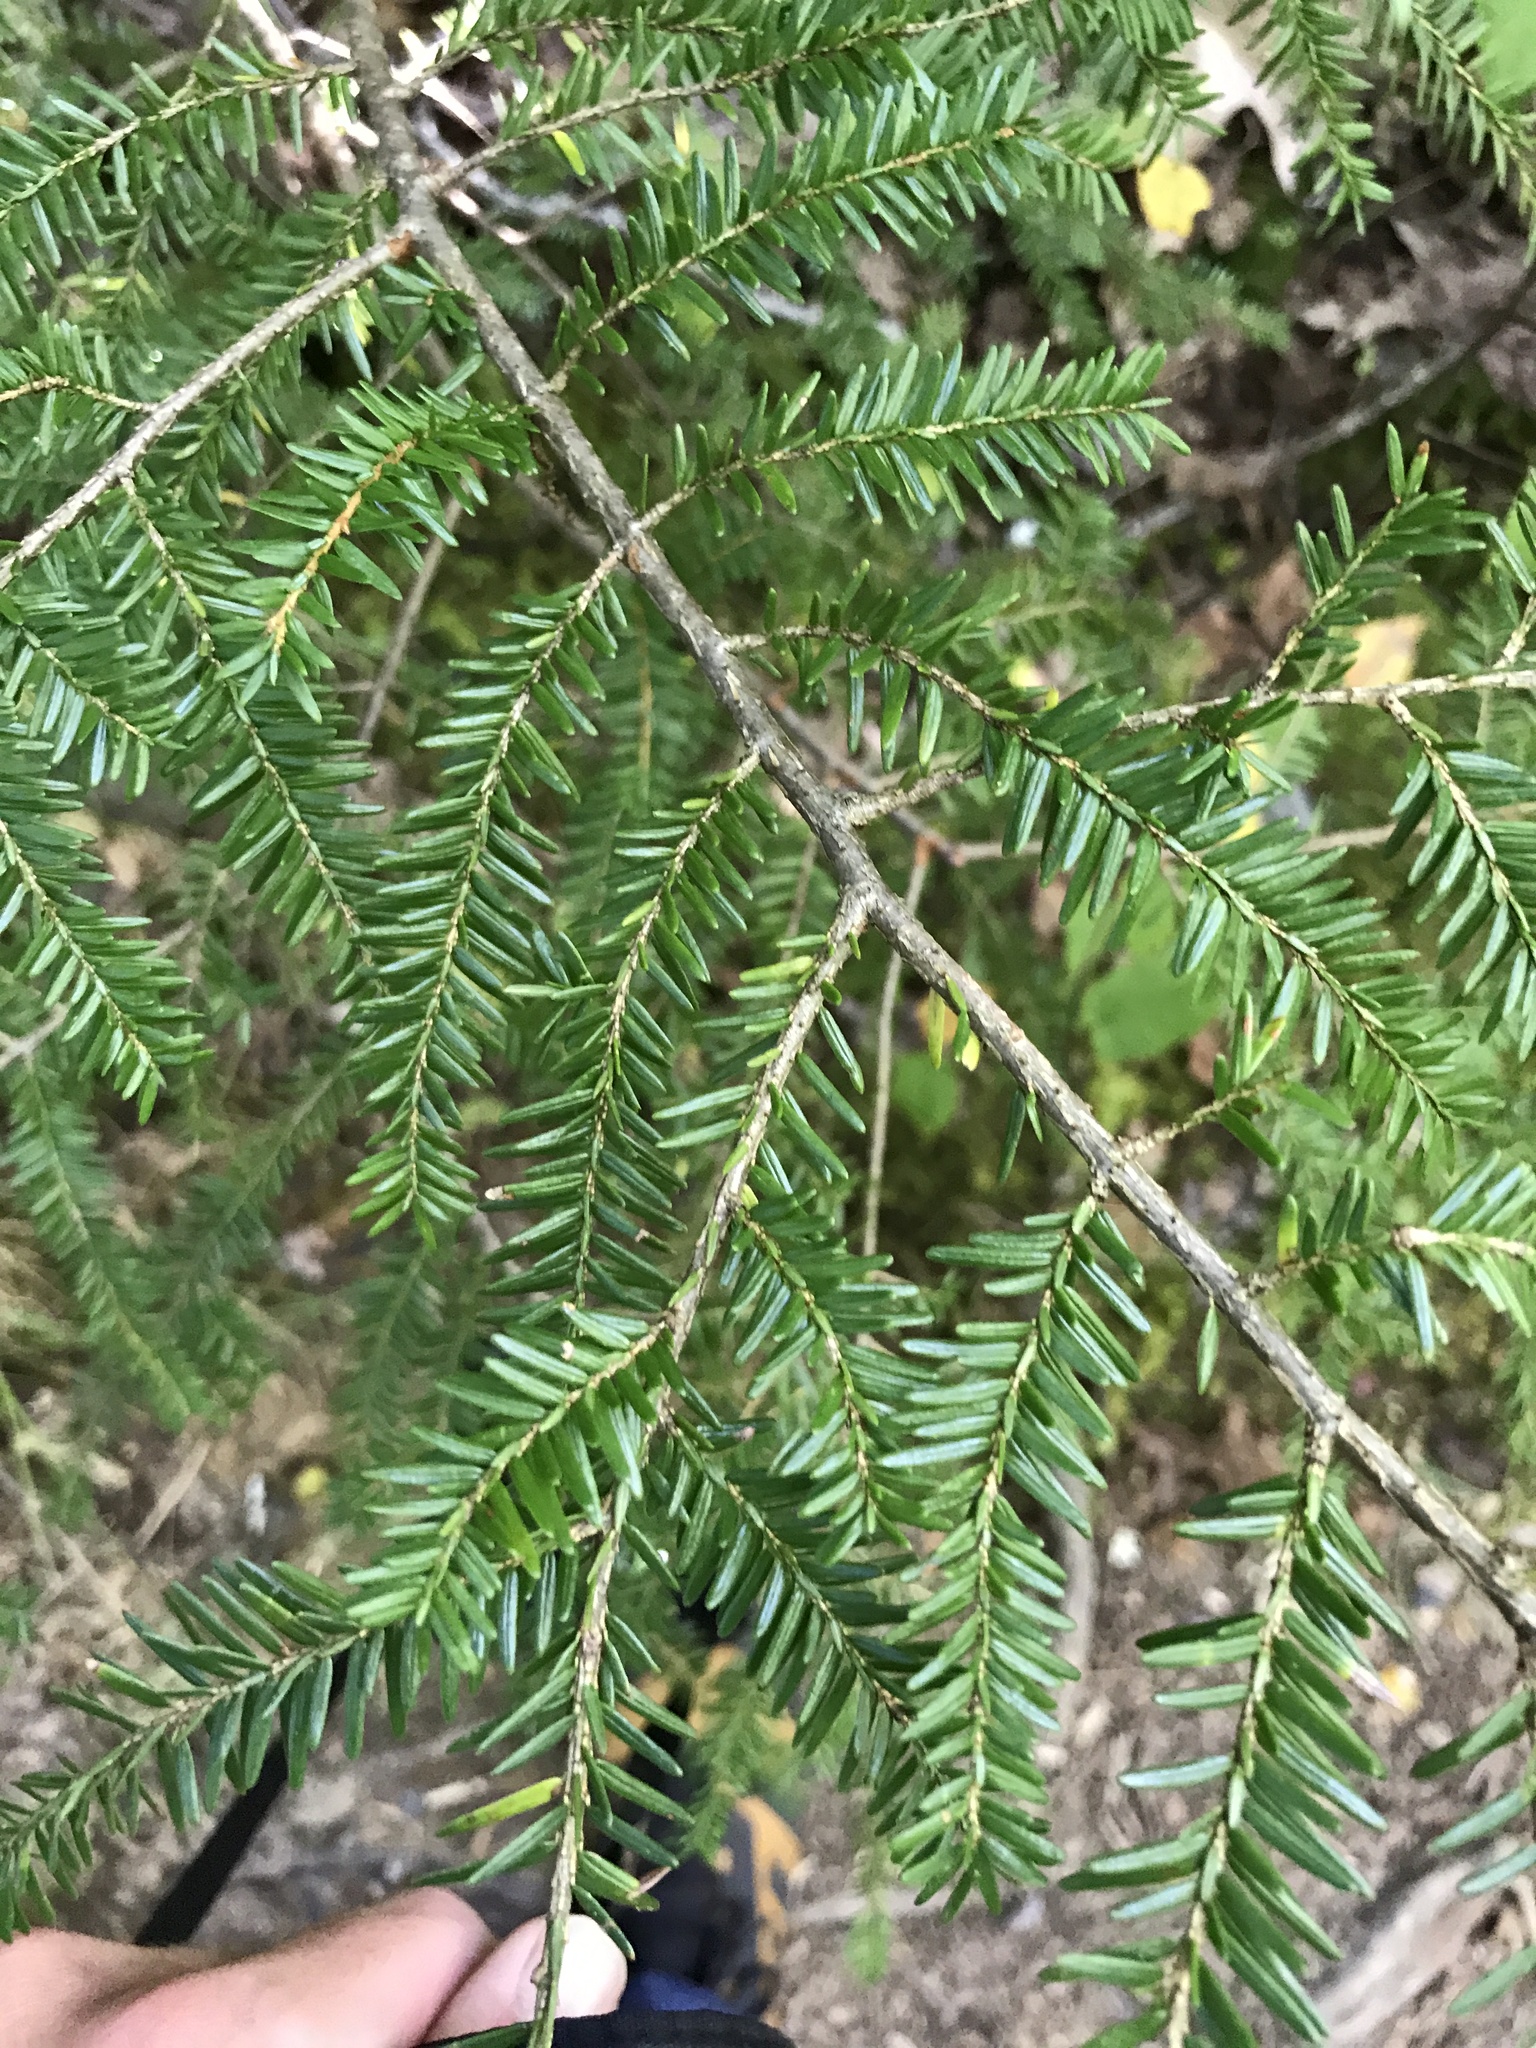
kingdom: Plantae
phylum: Tracheophyta
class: Pinopsida
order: Pinales
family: Pinaceae
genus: Tsuga
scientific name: Tsuga canadensis
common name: Eastern hemlock
